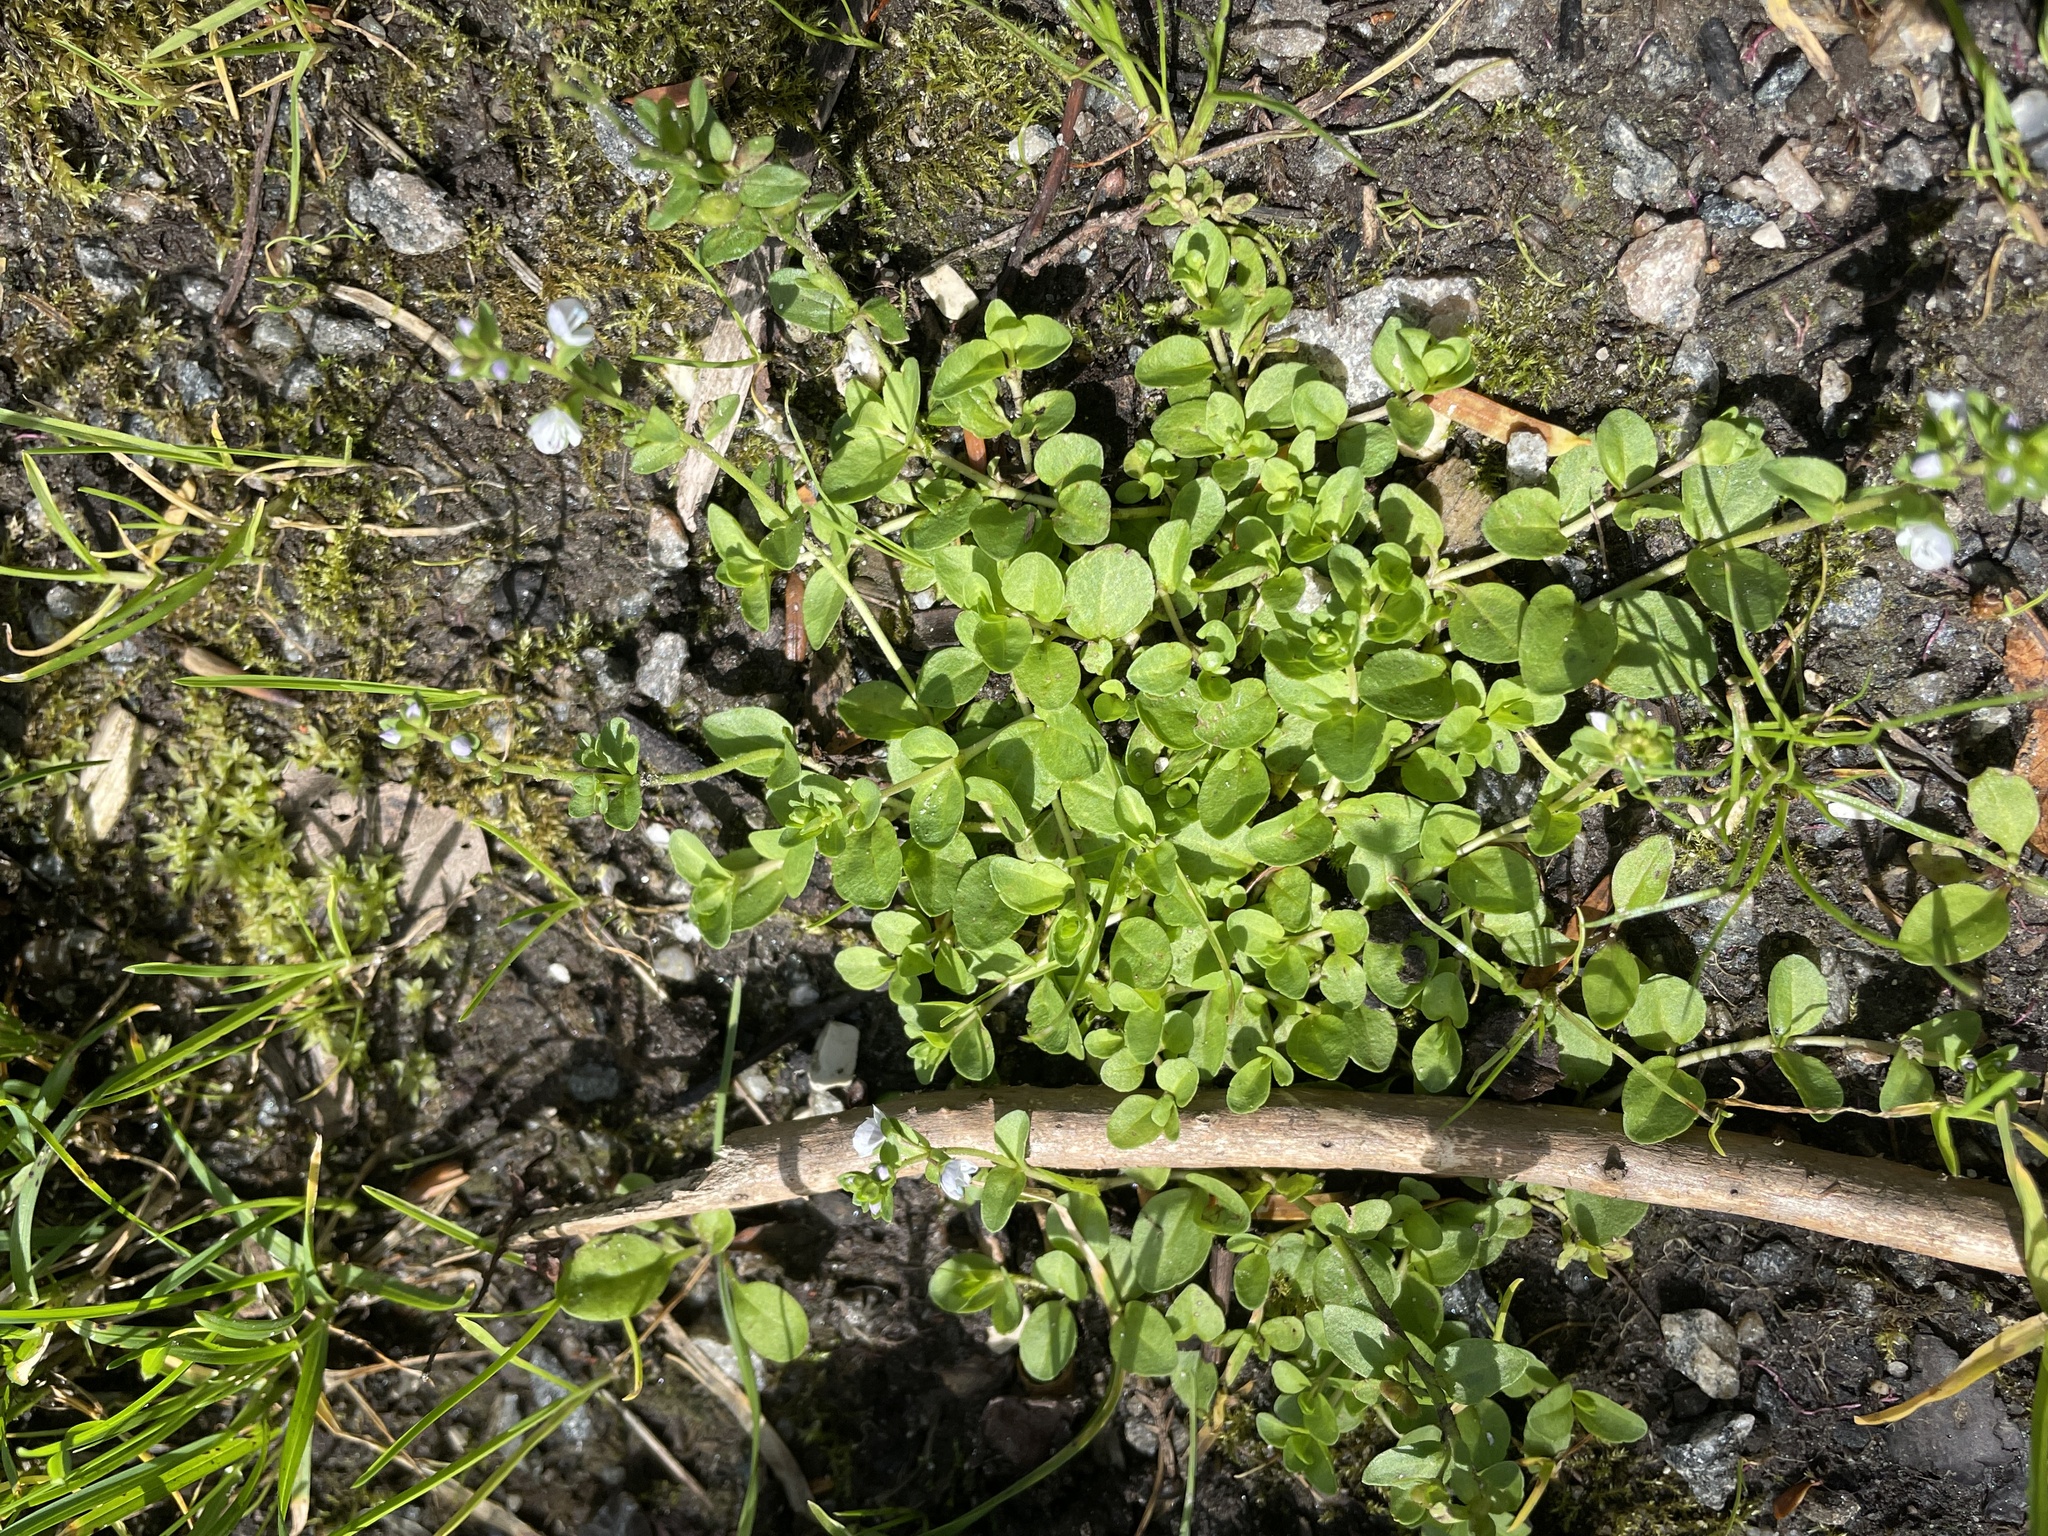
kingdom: Plantae
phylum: Tracheophyta
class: Magnoliopsida
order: Lamiales
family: Plantaginaceae
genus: Veronica
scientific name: Veronica serpyllifolia
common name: Thyme-leaved speedwell
